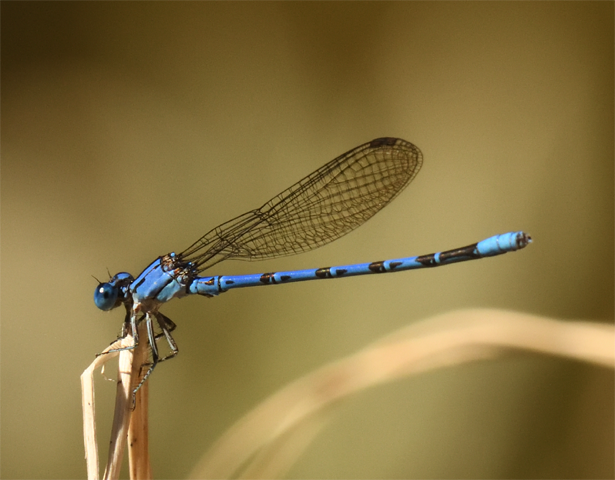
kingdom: Animalia
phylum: Arthropoda
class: Insecta
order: Odonata
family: Coenagrionidae
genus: Argia
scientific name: Argia vivida
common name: Vivid dancer
